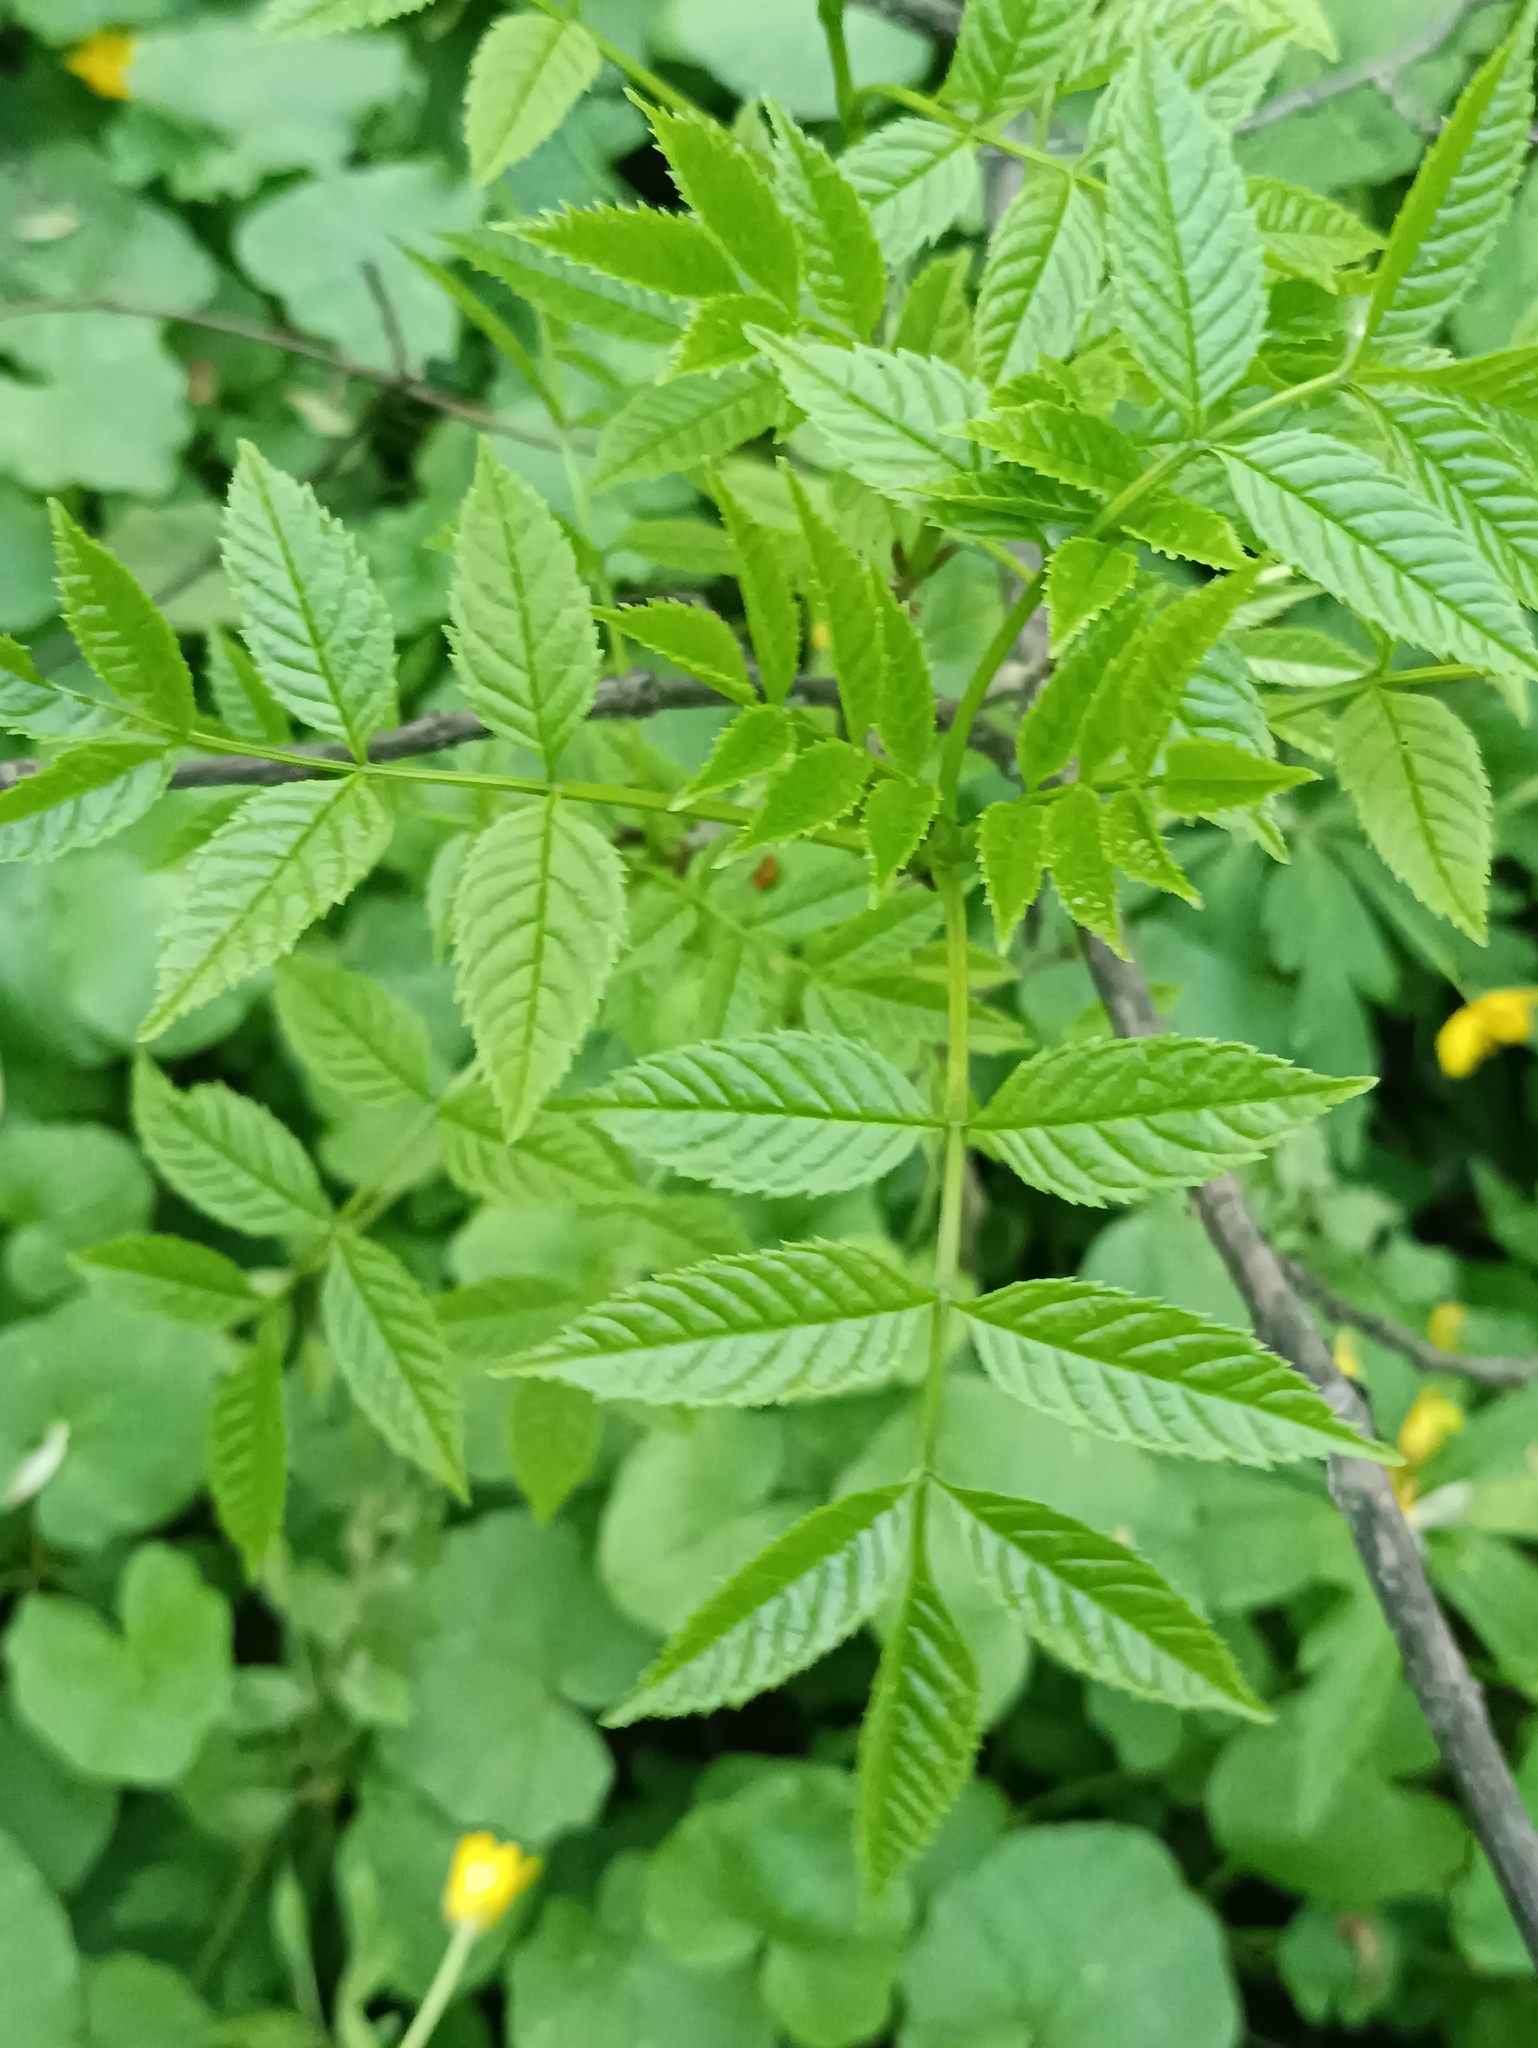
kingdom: Plantae
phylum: Tracheophyta
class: Magnoliopsida
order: Lamiales
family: Oleaceae
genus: Fraxinus
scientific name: Fraxinus excelsior
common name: European ash
